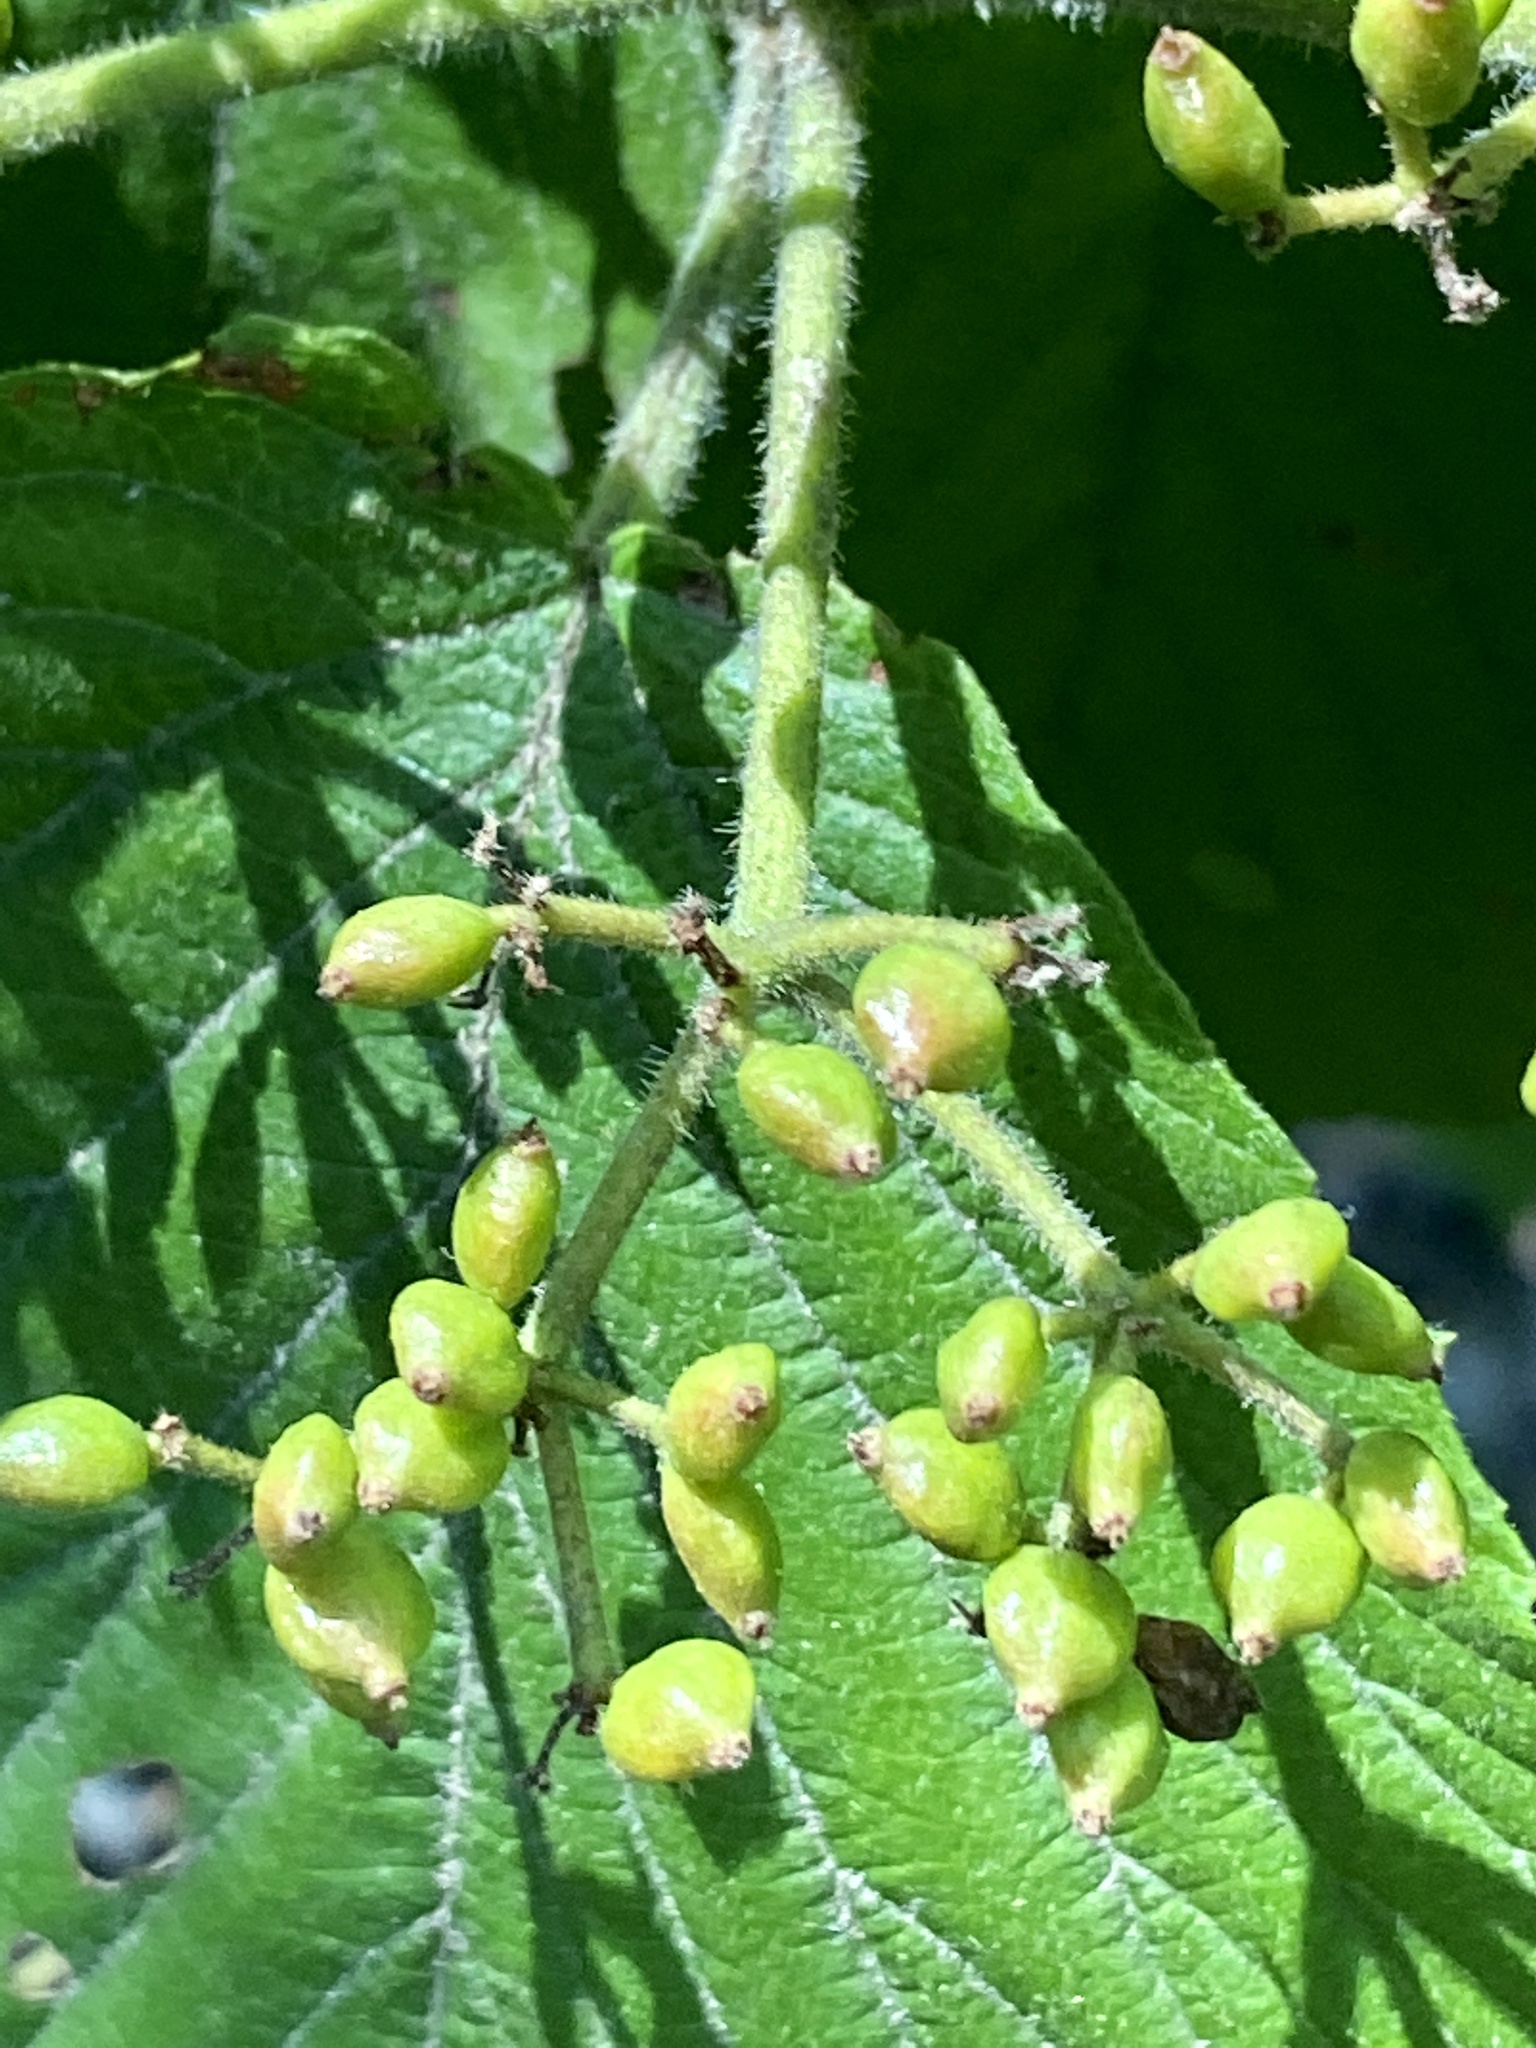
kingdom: Plantae
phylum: Tracheophyta
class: Magnoliopsida
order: Dipsacales
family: Viburnaceae
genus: Viburnum
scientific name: Viburnum dilatatum
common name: Linden arrowwood
